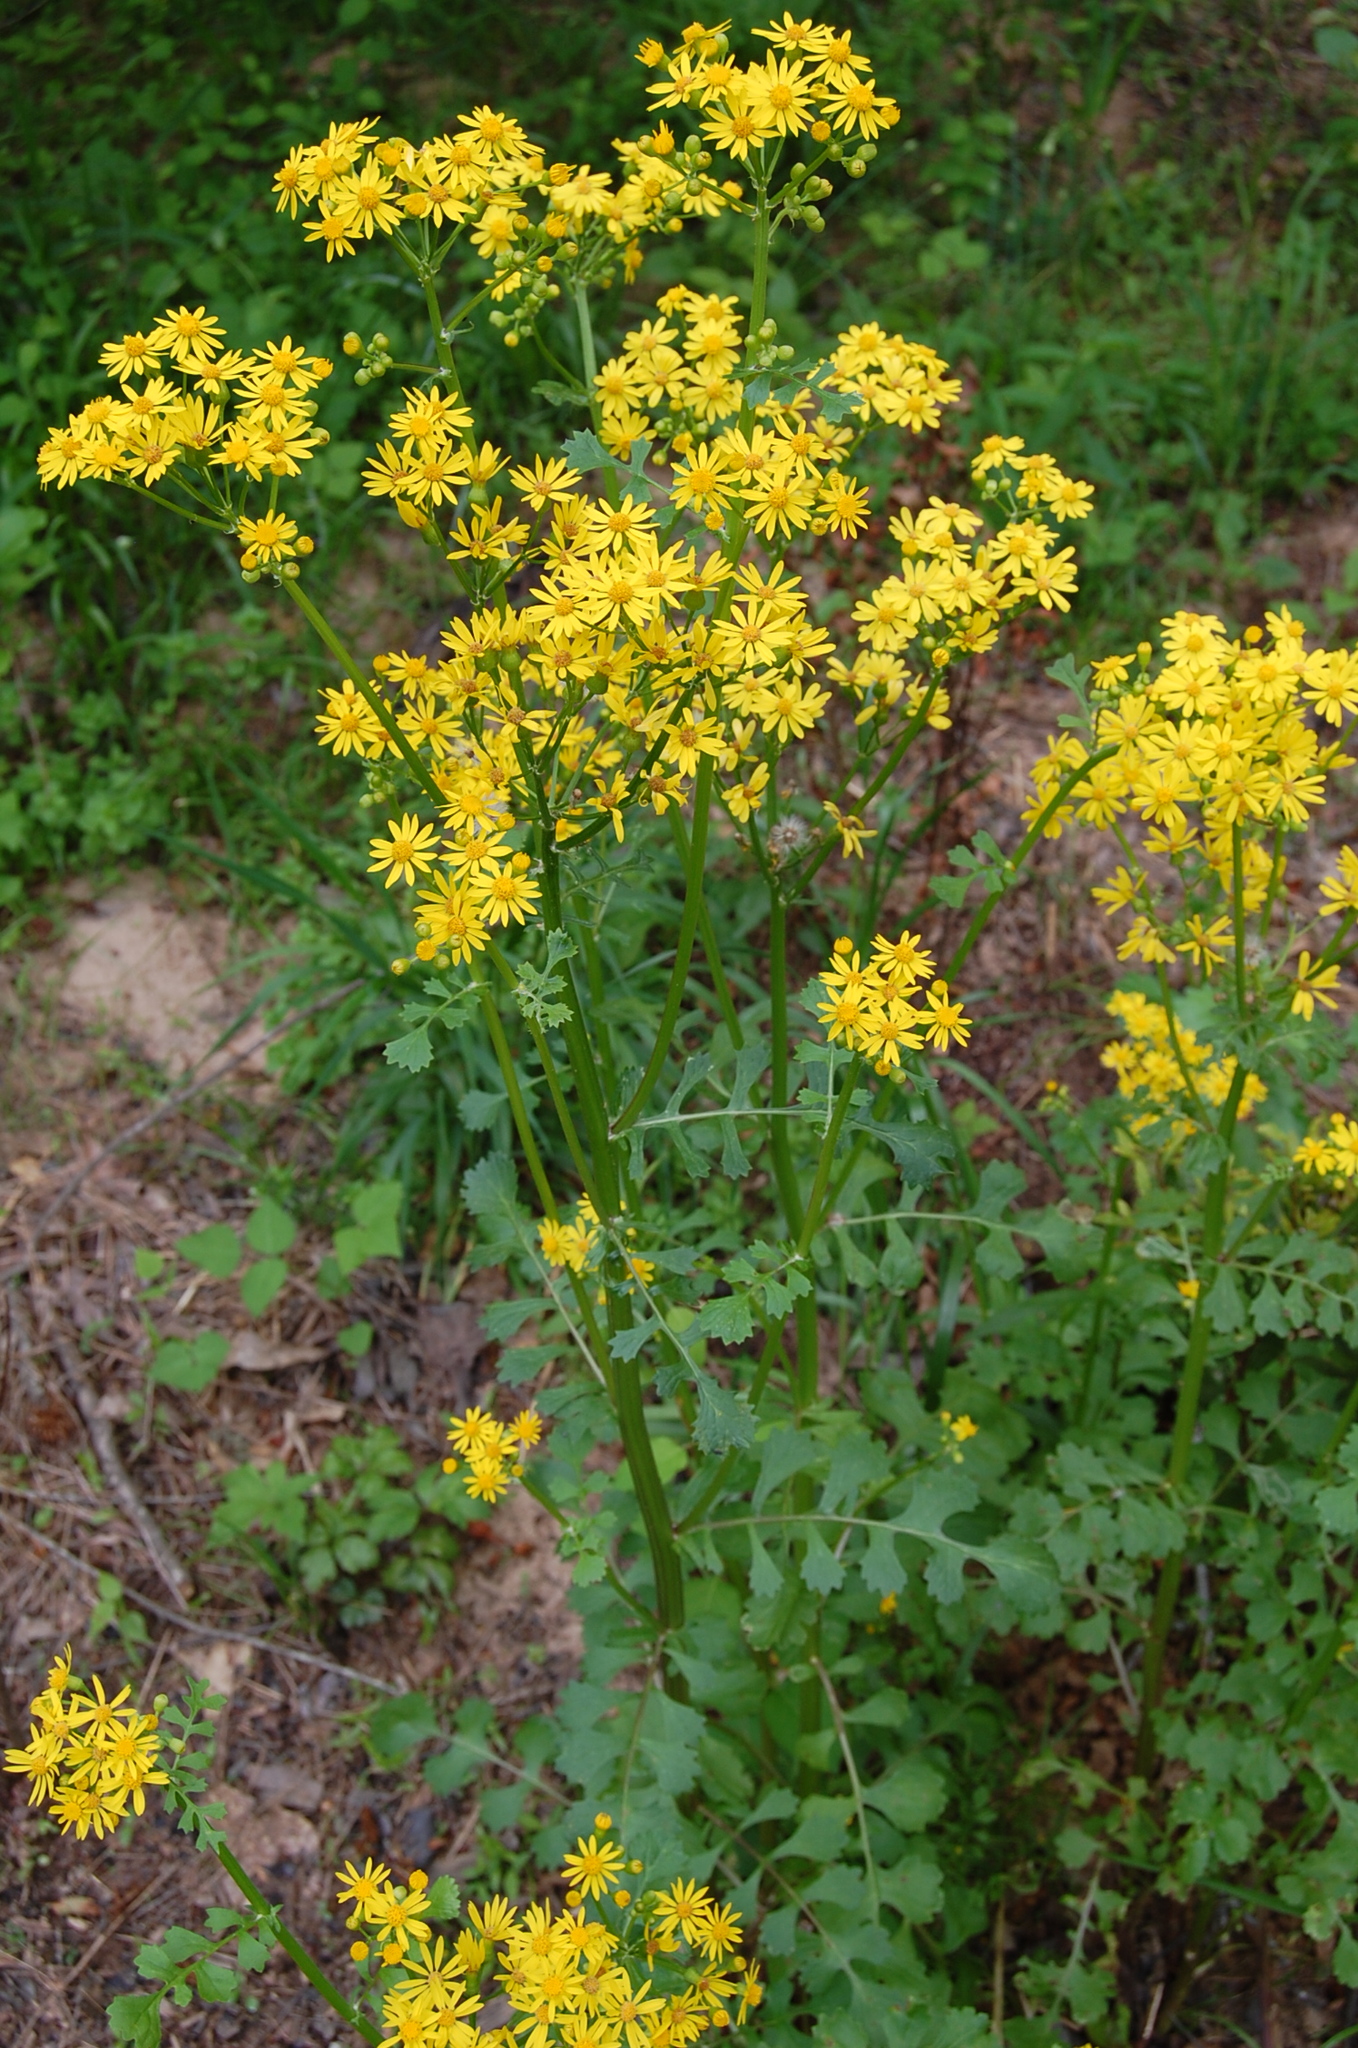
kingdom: Plantae
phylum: Tracheophyta
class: Magnoliopsida
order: Asterales
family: Asteraceae
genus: Packera
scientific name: Packera glabella
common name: Butterweed
